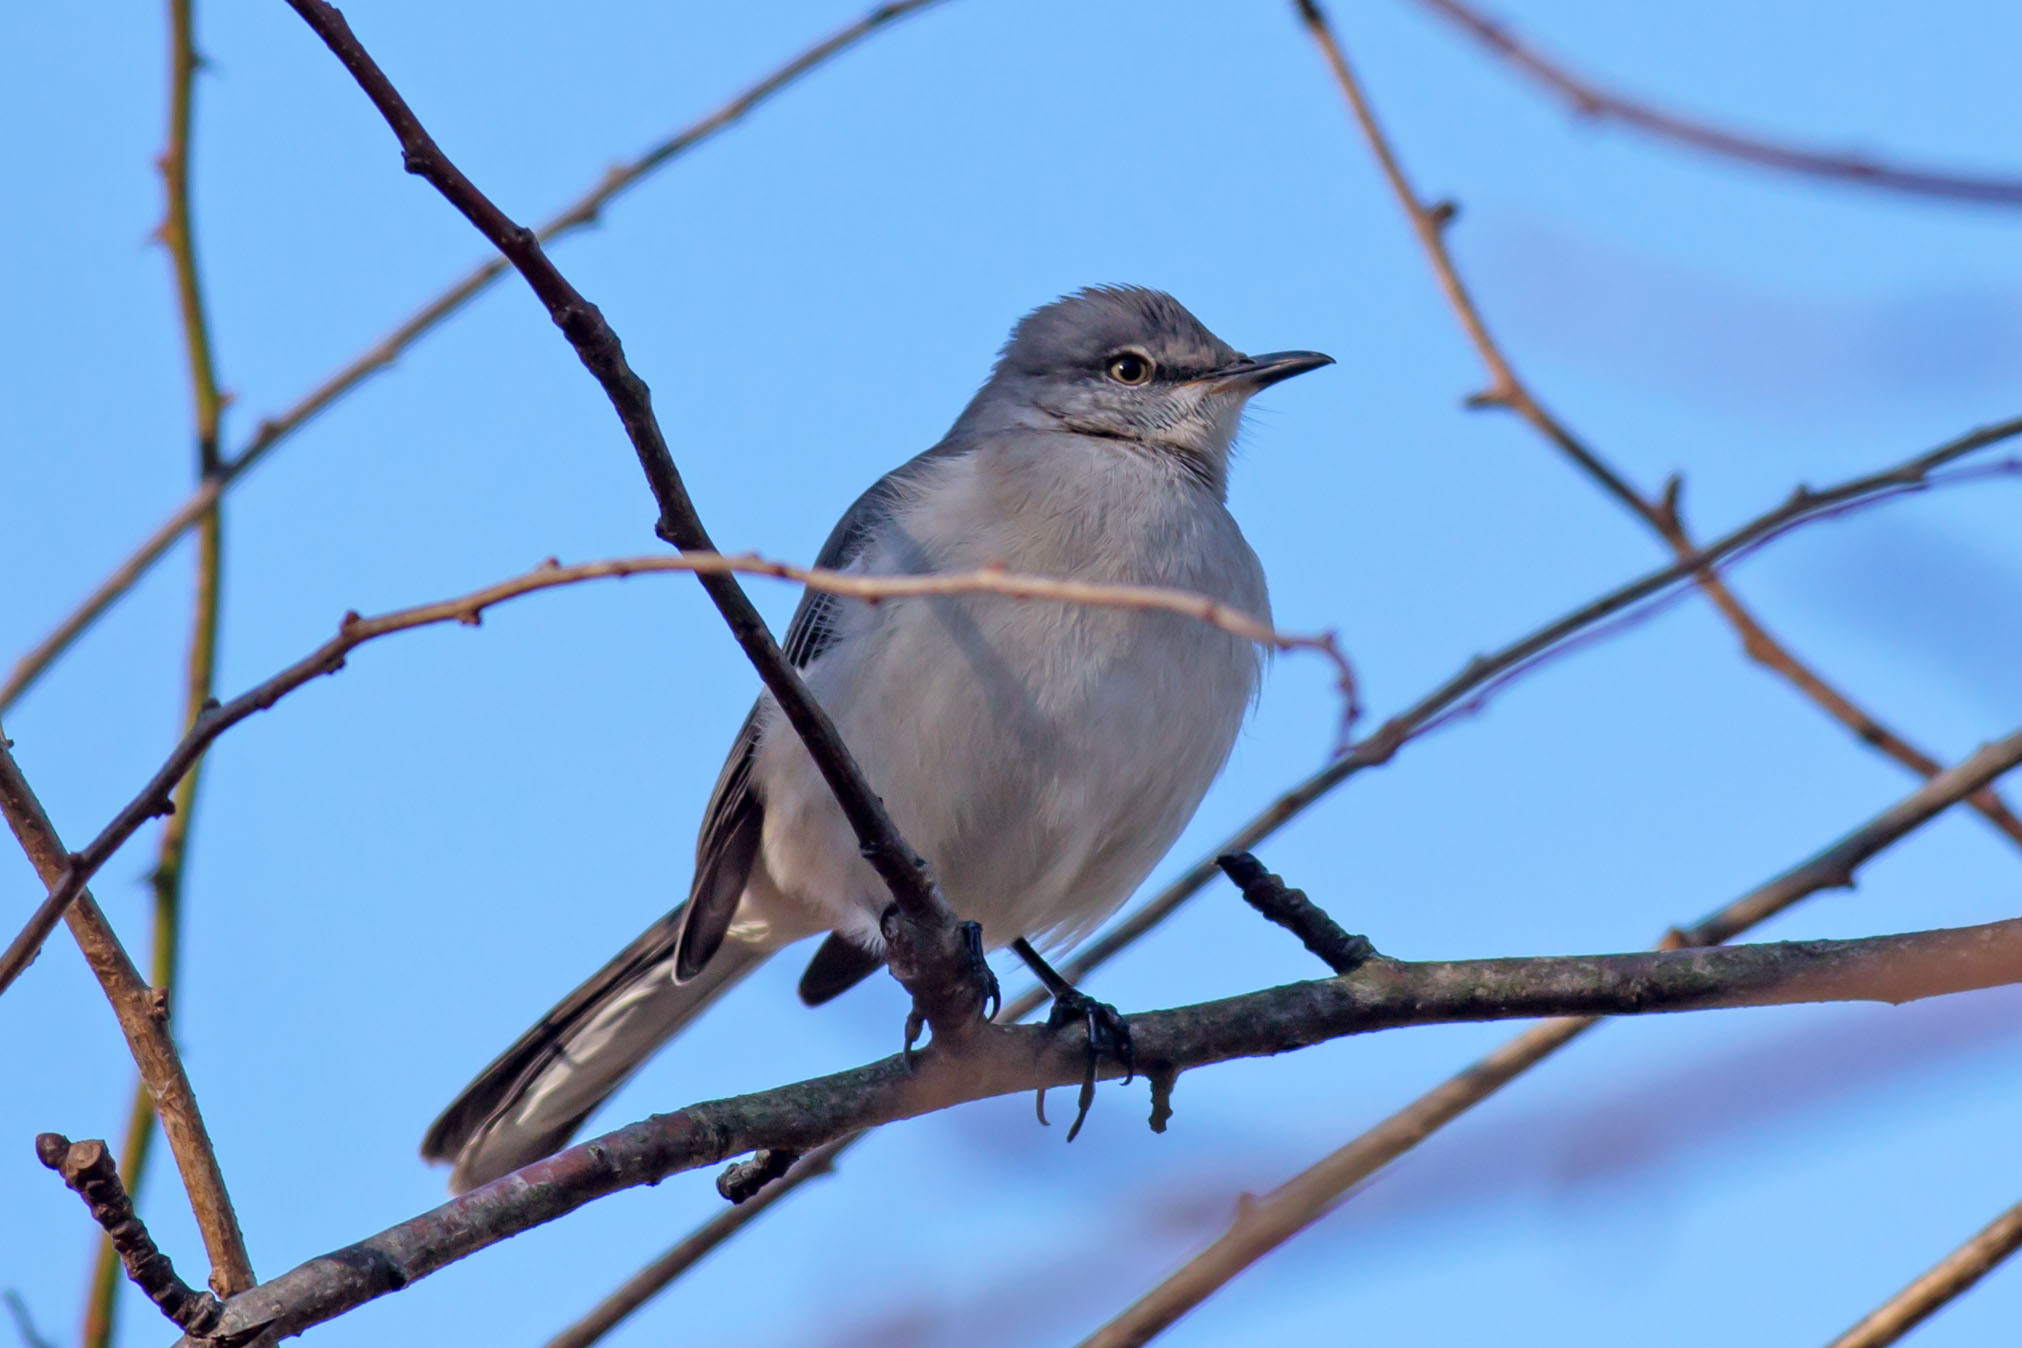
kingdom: Animalia
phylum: Chordata
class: Aves
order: Passeriformes
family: Mimidae
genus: Mimus
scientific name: Mimus polyglottos
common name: Northern mockingbird
